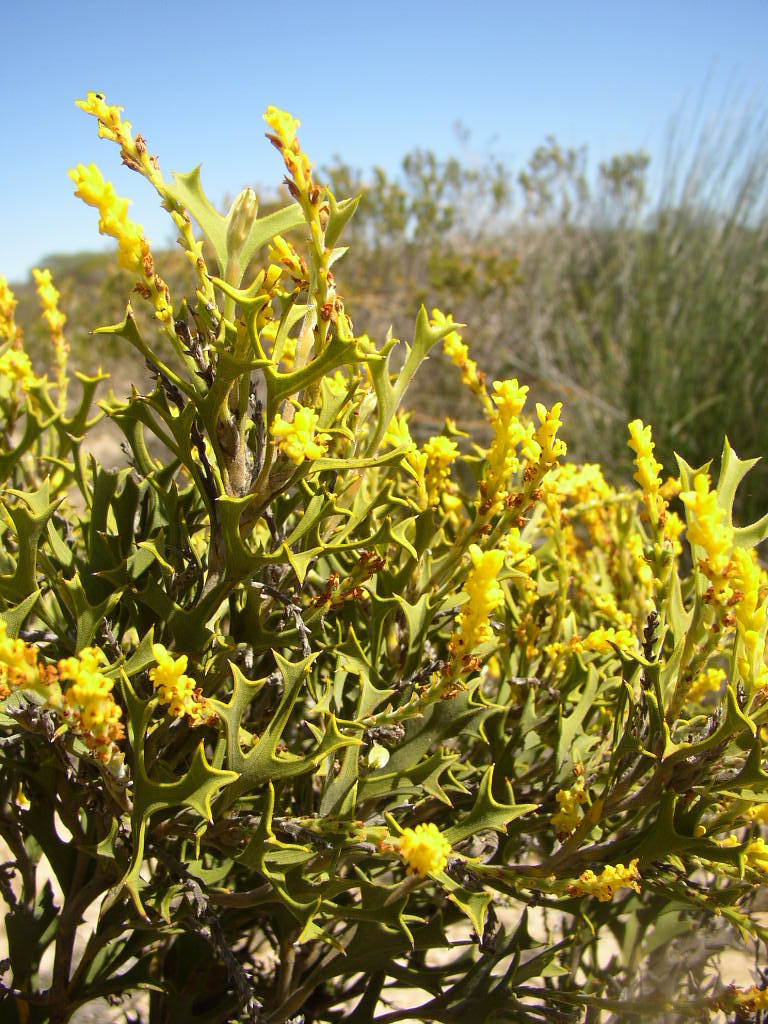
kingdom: Plantae
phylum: Tracheophyta
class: Magnoliopsida
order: Proteales
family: Proteaceae
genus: Synaphea
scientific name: Synaphea spinulosa
